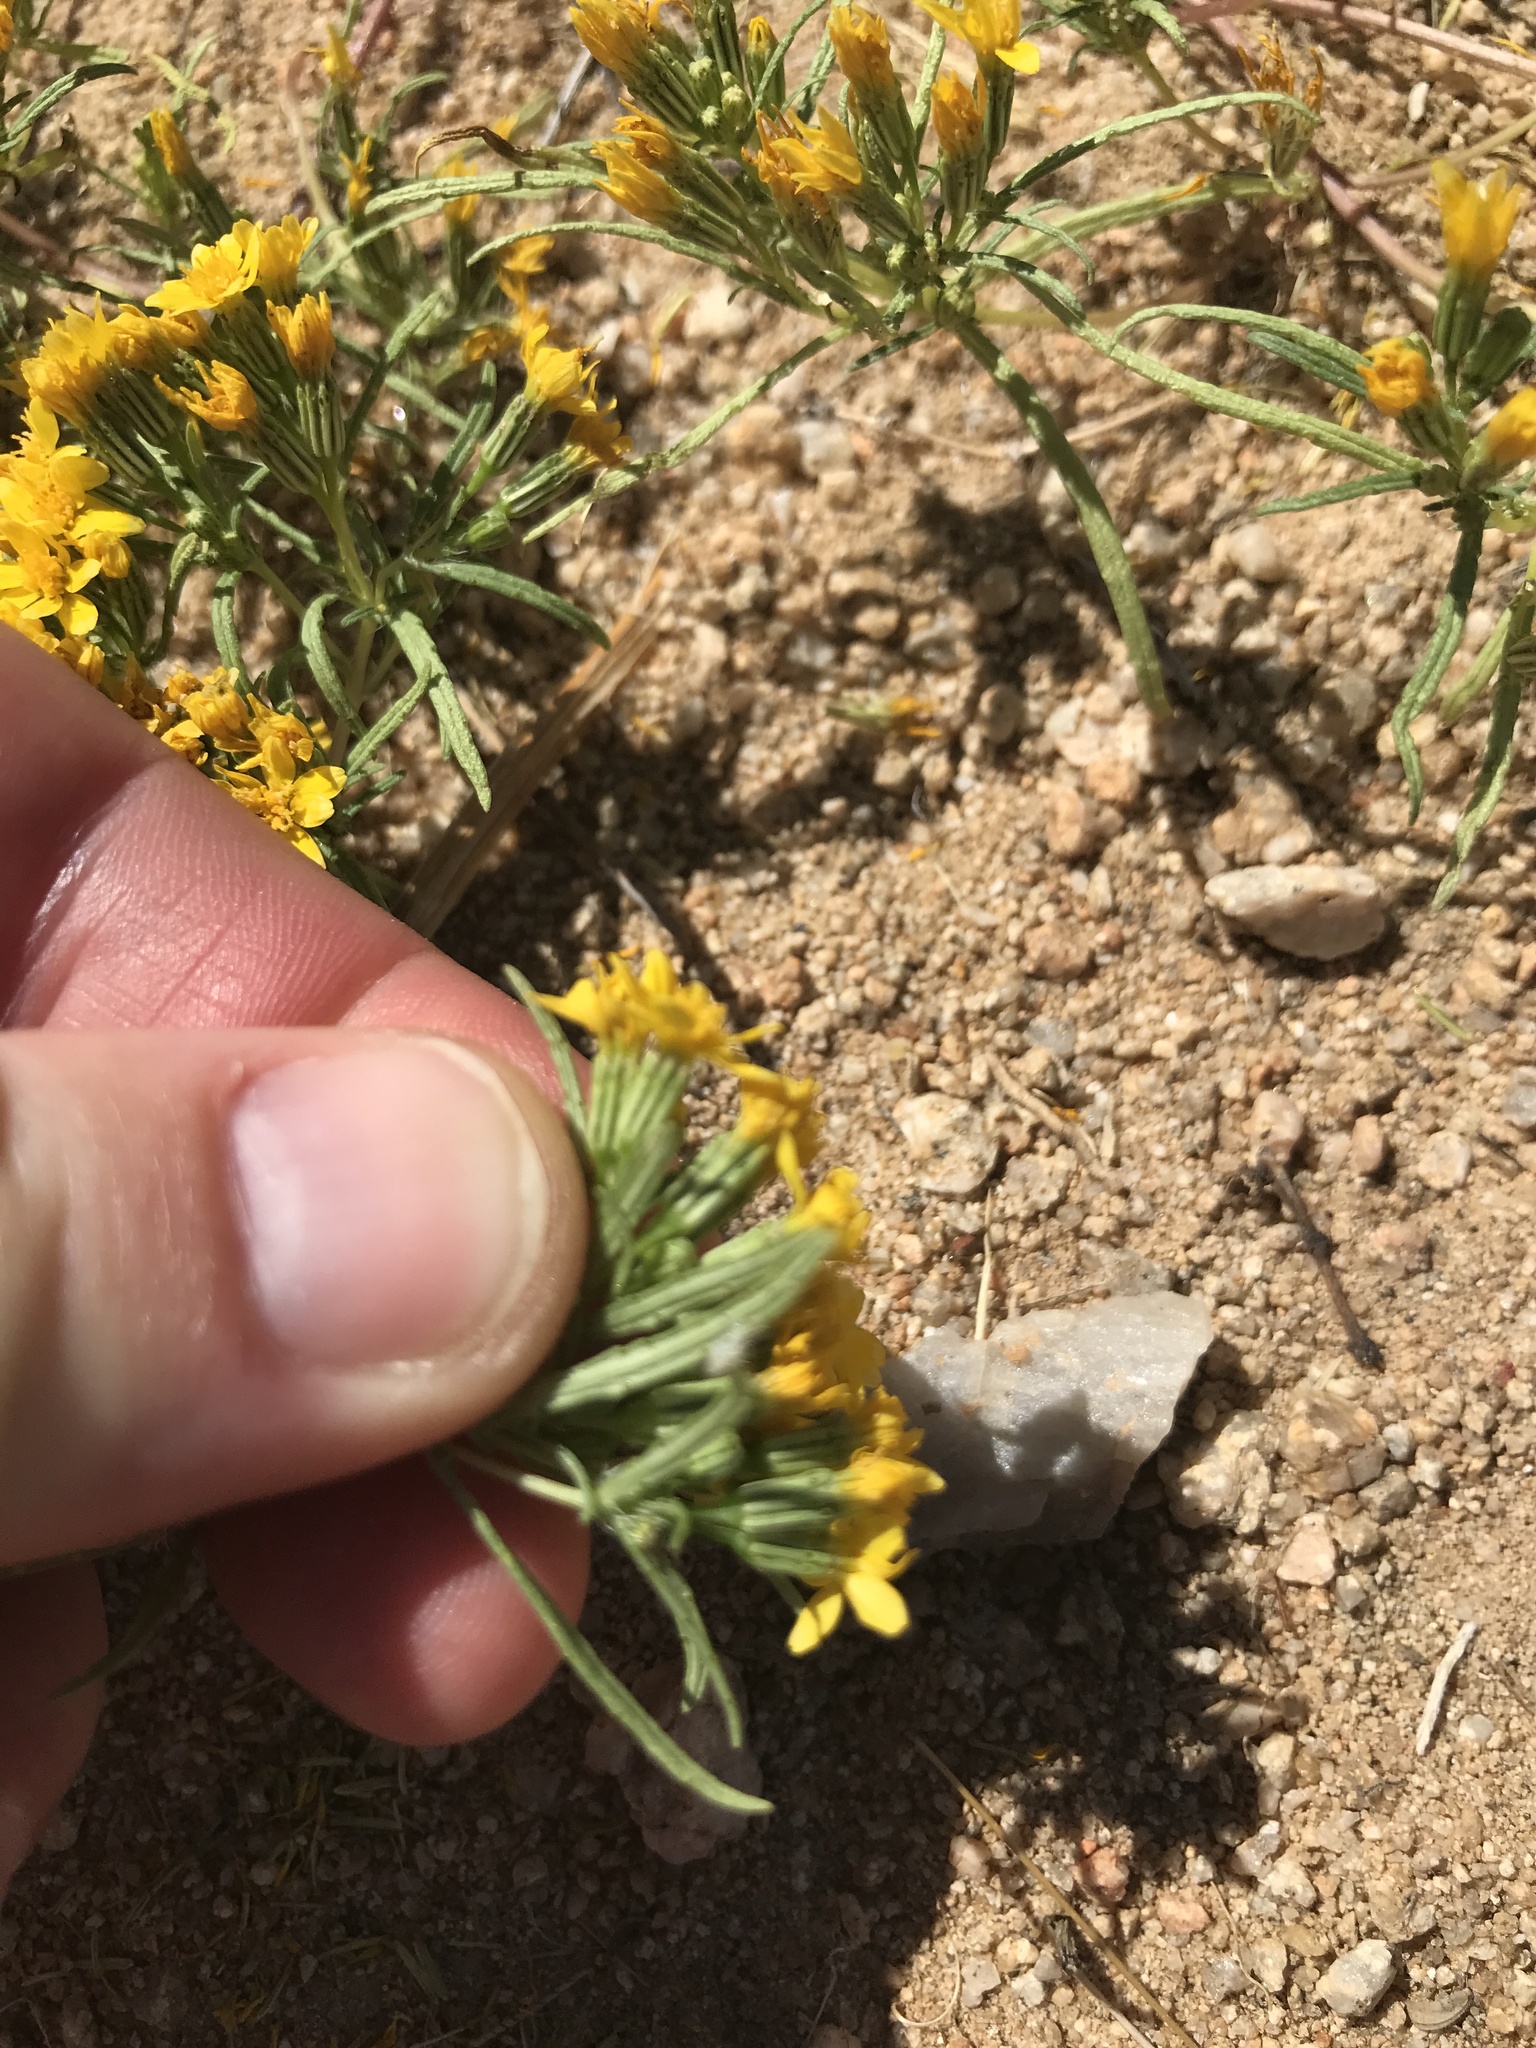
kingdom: Plantae
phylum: Tracheophyta
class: Magnoliopsida
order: Asterales
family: Asteraceae
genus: Pectis
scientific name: Pectis papposa
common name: Many-bristle chinchweed
